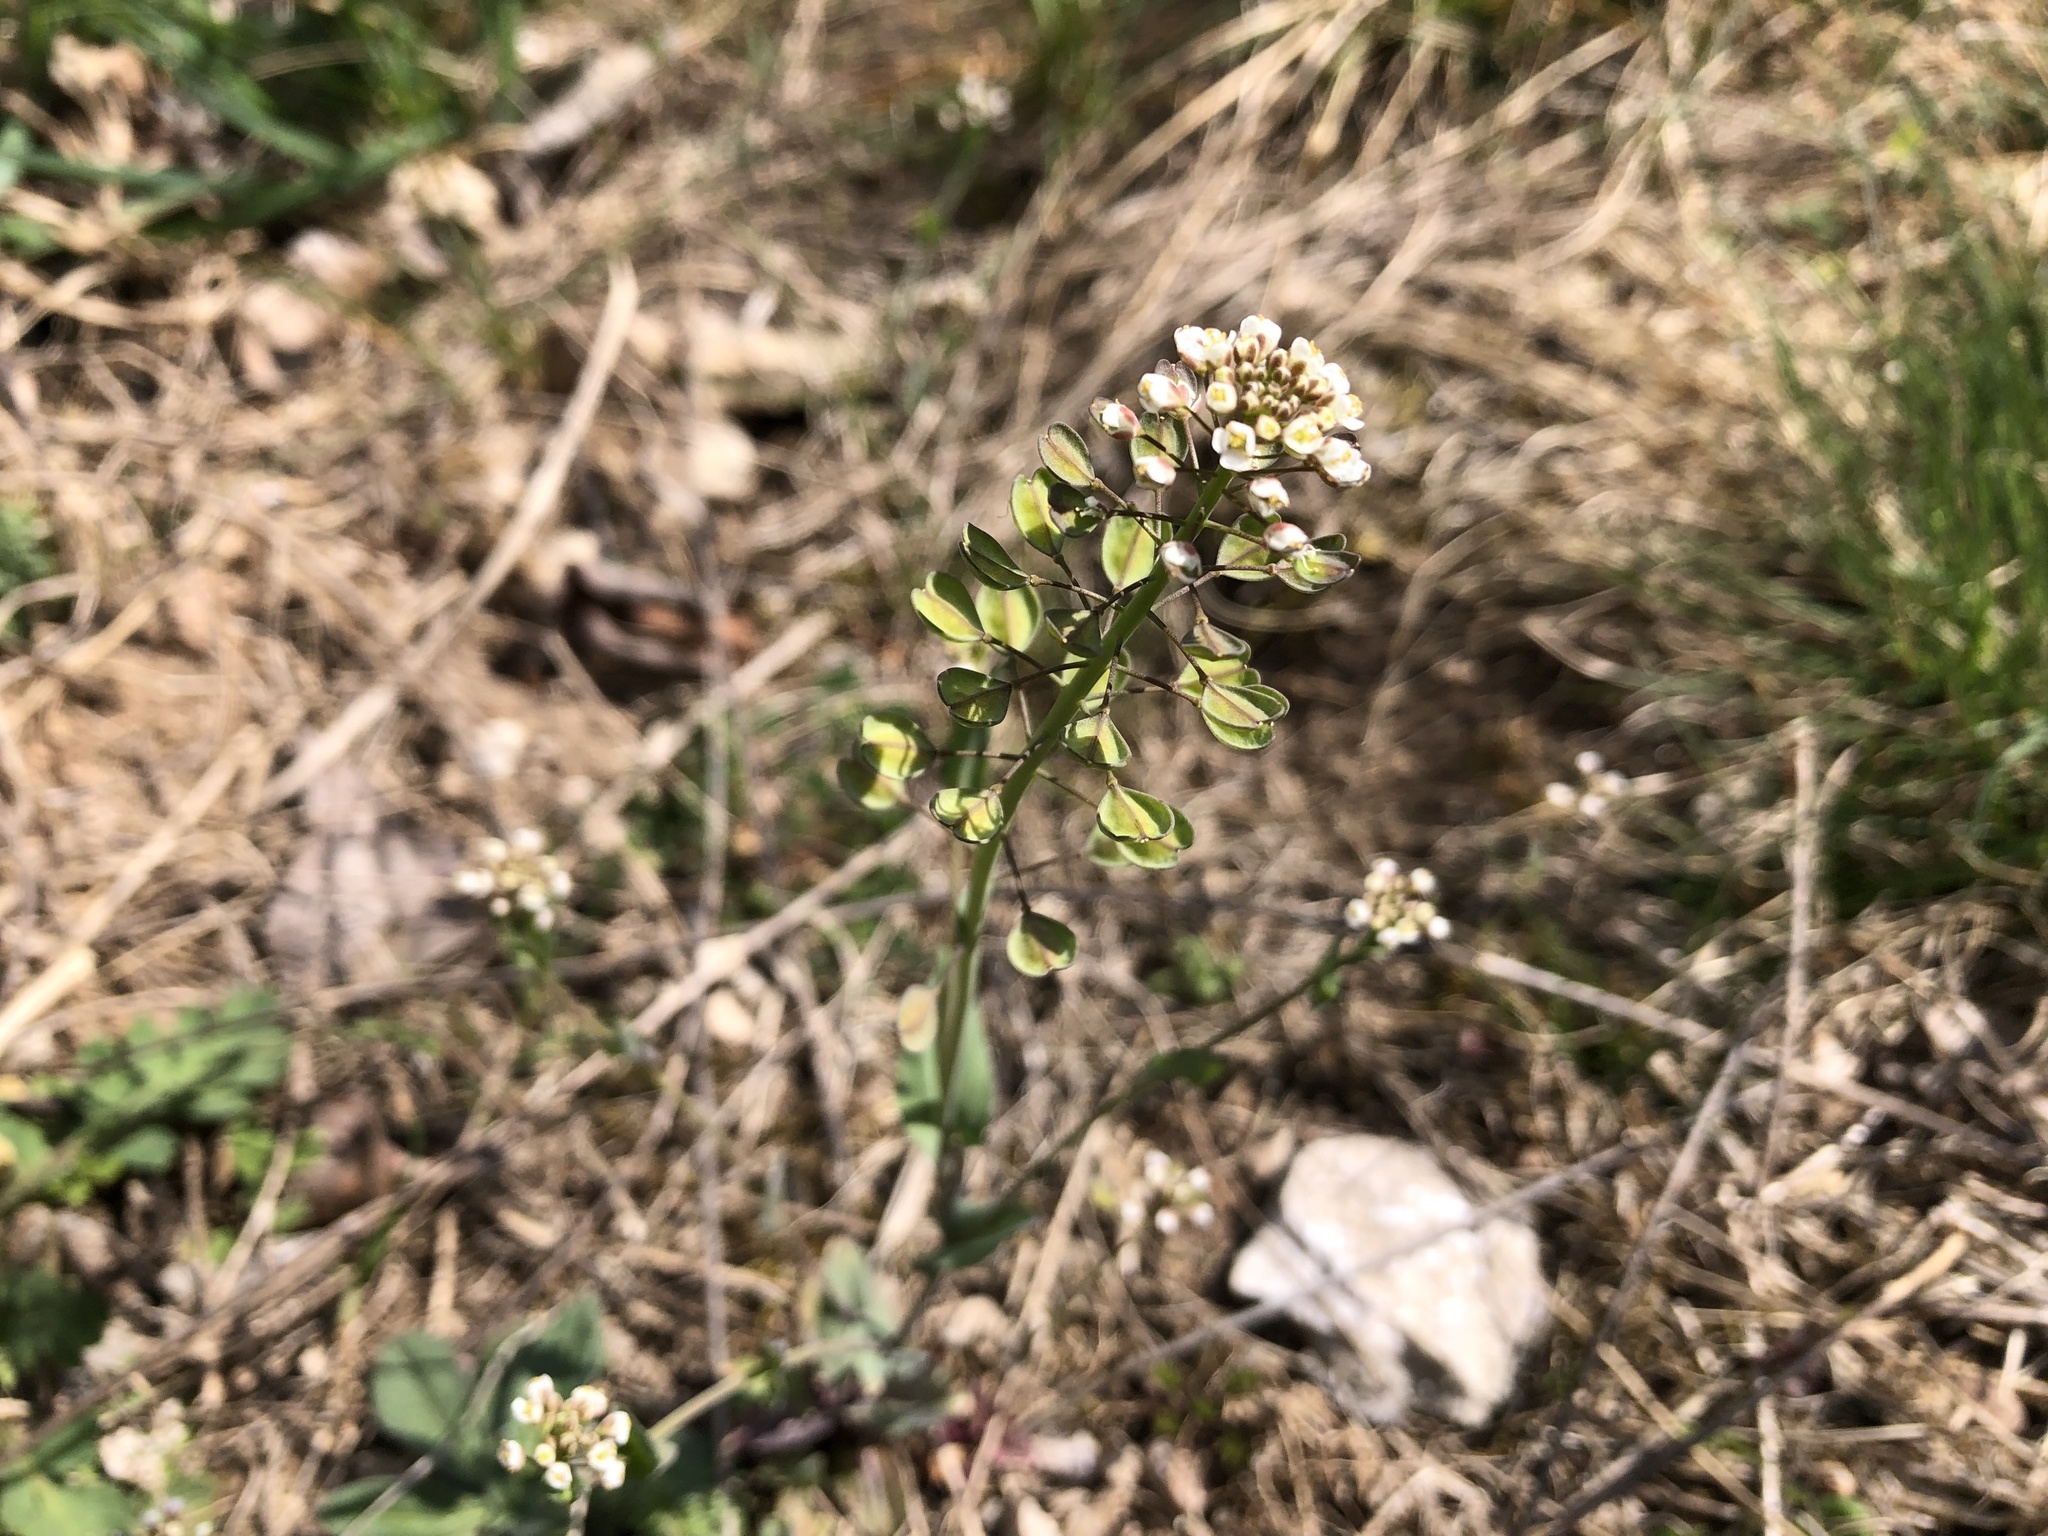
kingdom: Plantae
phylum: Tracheophyta
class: Magnoliopsida
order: Brassicales
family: Brassicaceae
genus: Noccaea
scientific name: Noccaea perfoliata
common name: Perfoliate pennycress
